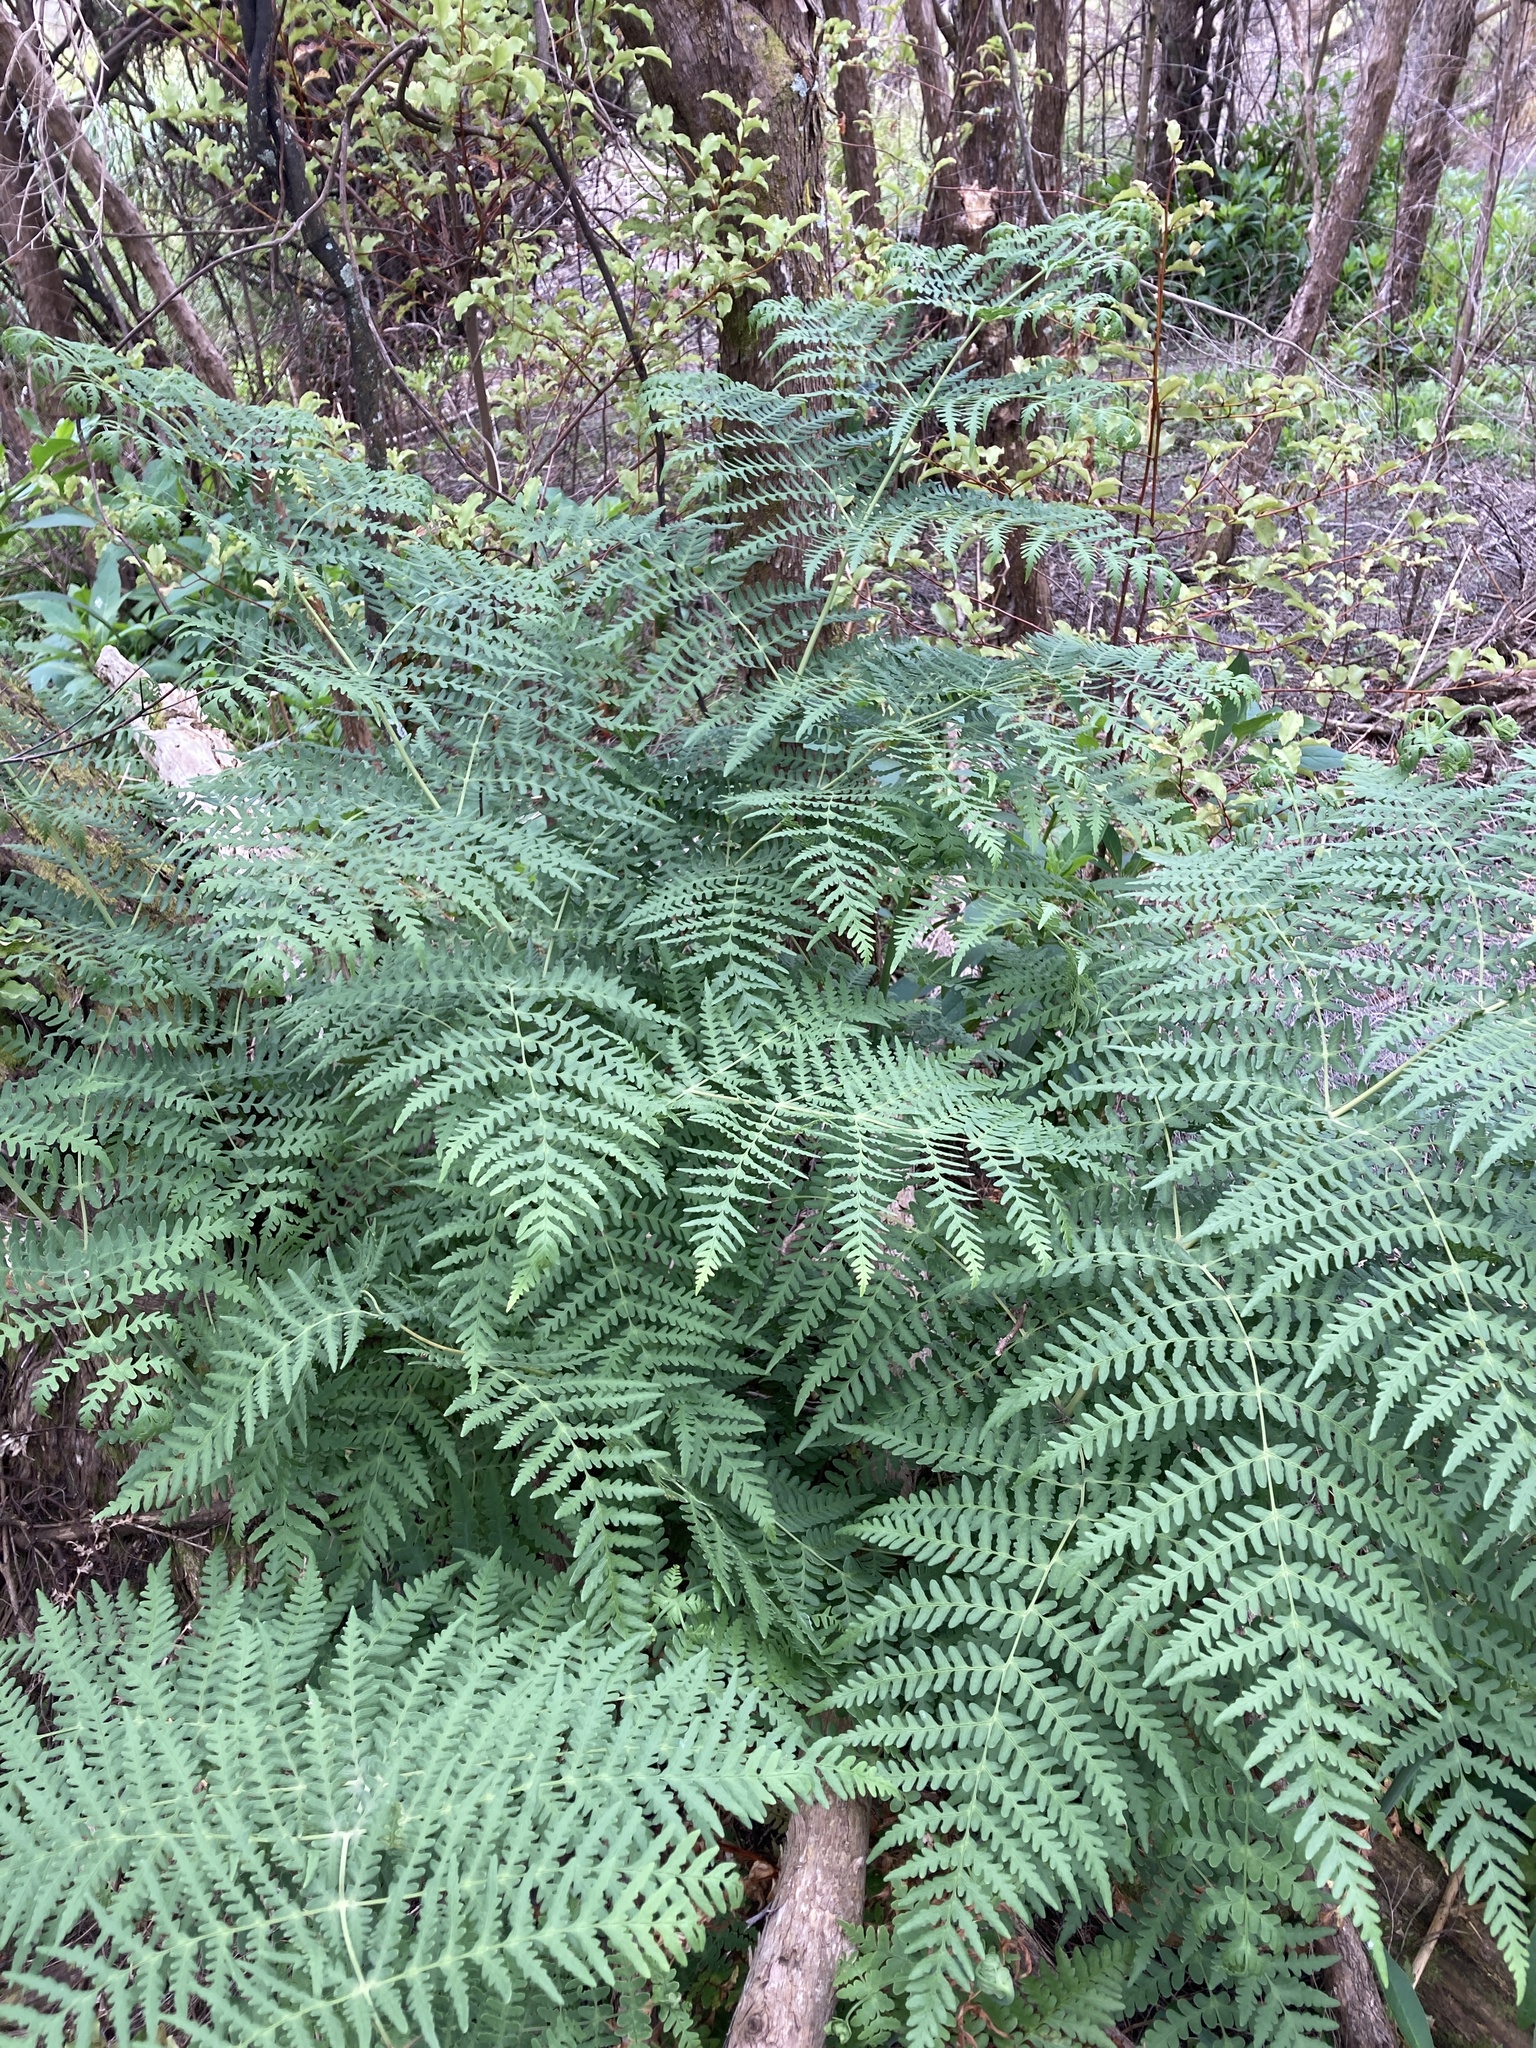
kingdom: Plantae
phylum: Tracheophyta
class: Polypodiopsida
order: Polypodiales
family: Dennstaedtiaceae
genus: Histiopteris
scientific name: Histiopteris incisa
